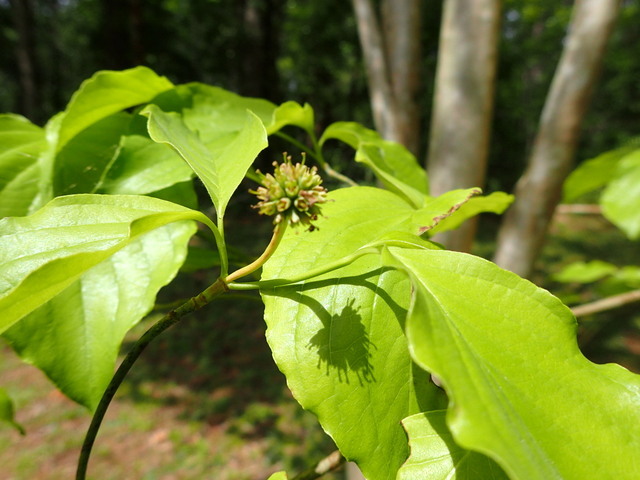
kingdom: Plantae
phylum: Tracheophyta
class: Magnoliopsida
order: Cornales
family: Cornaceae
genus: Cornus
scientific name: Cornus florida
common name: Flowering dogwood
